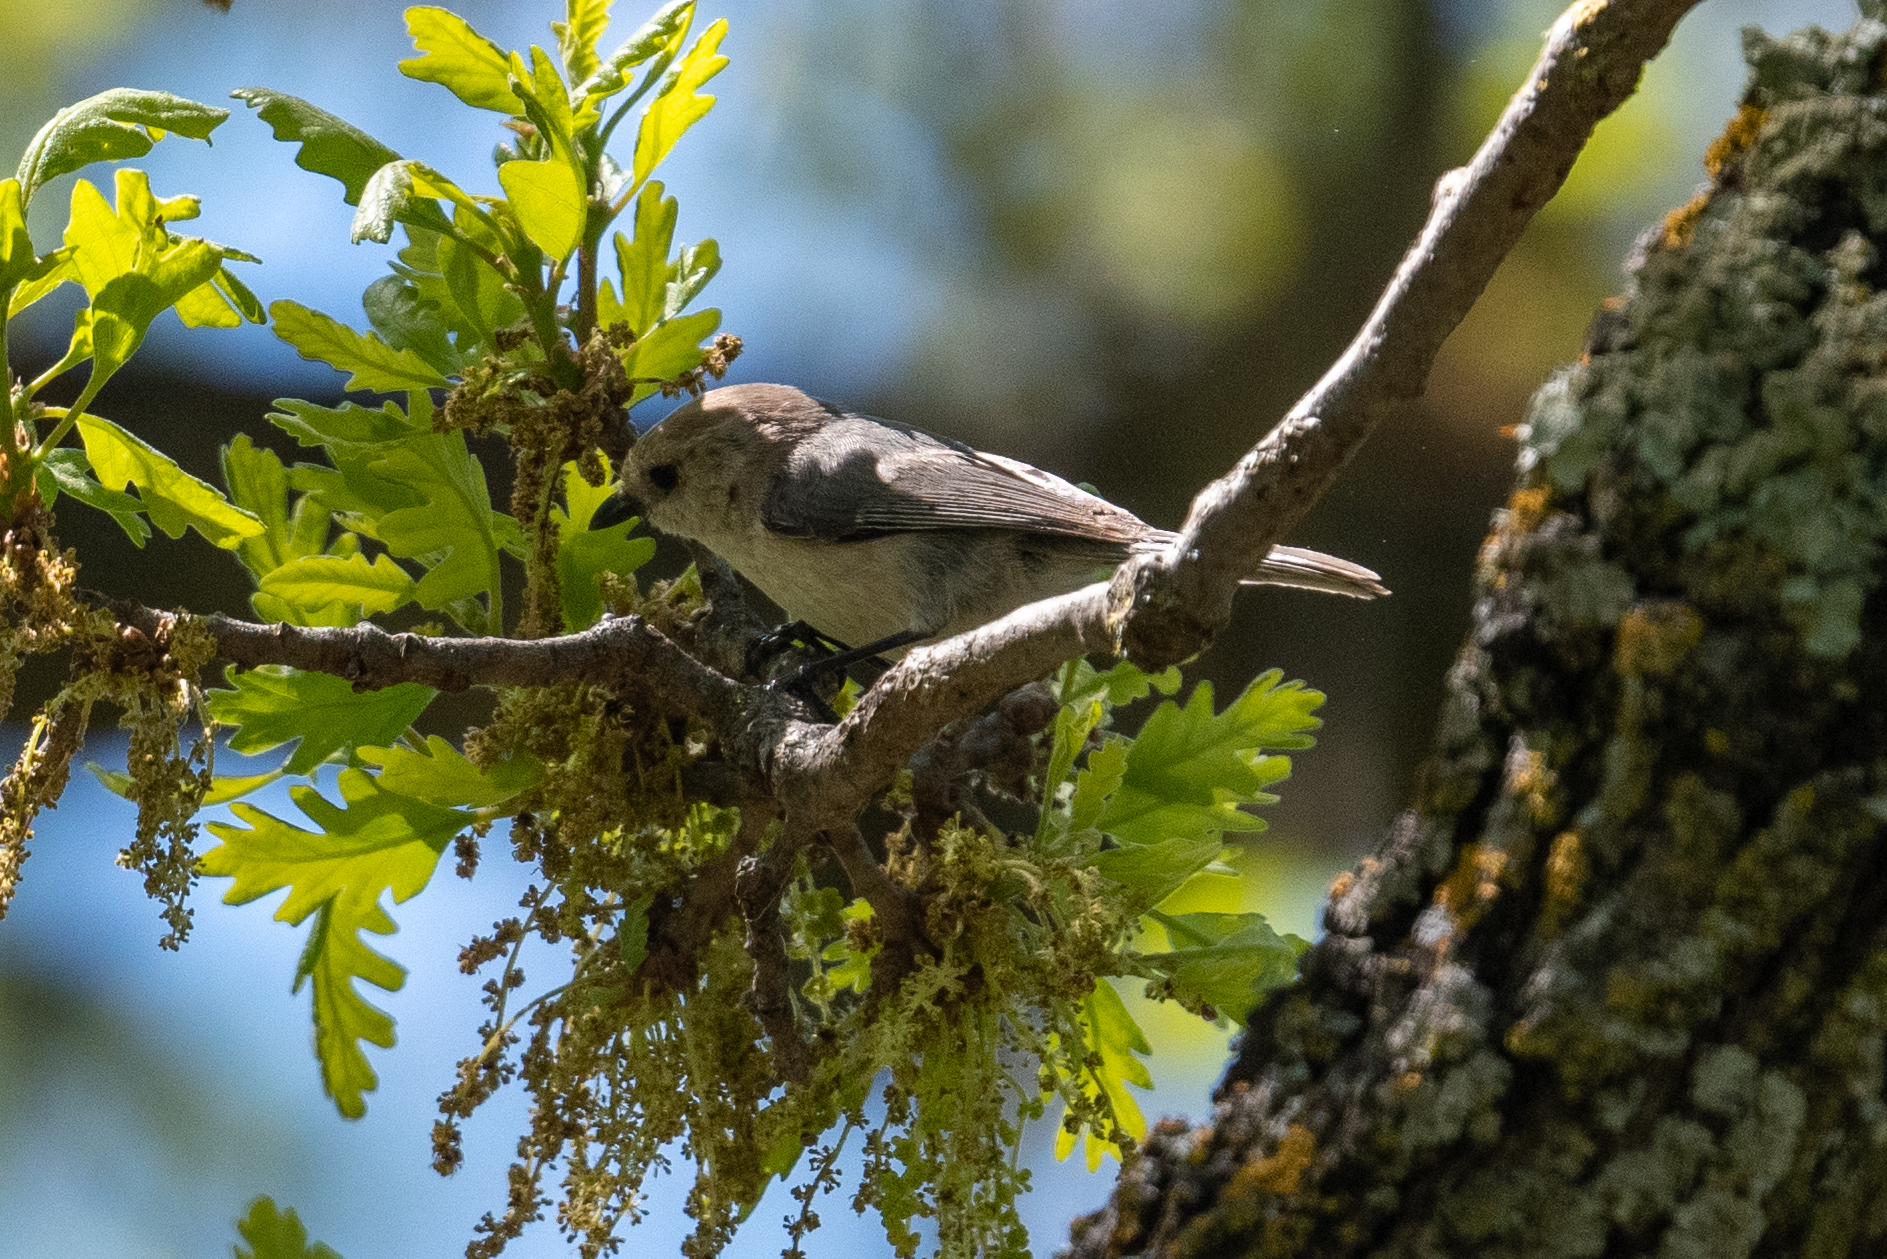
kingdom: Animalia
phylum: Chordata
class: Aves
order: Passeriformes
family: Aegithalidae
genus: Psaltriparus
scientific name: Psaltriparus minimus
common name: American bushtit
